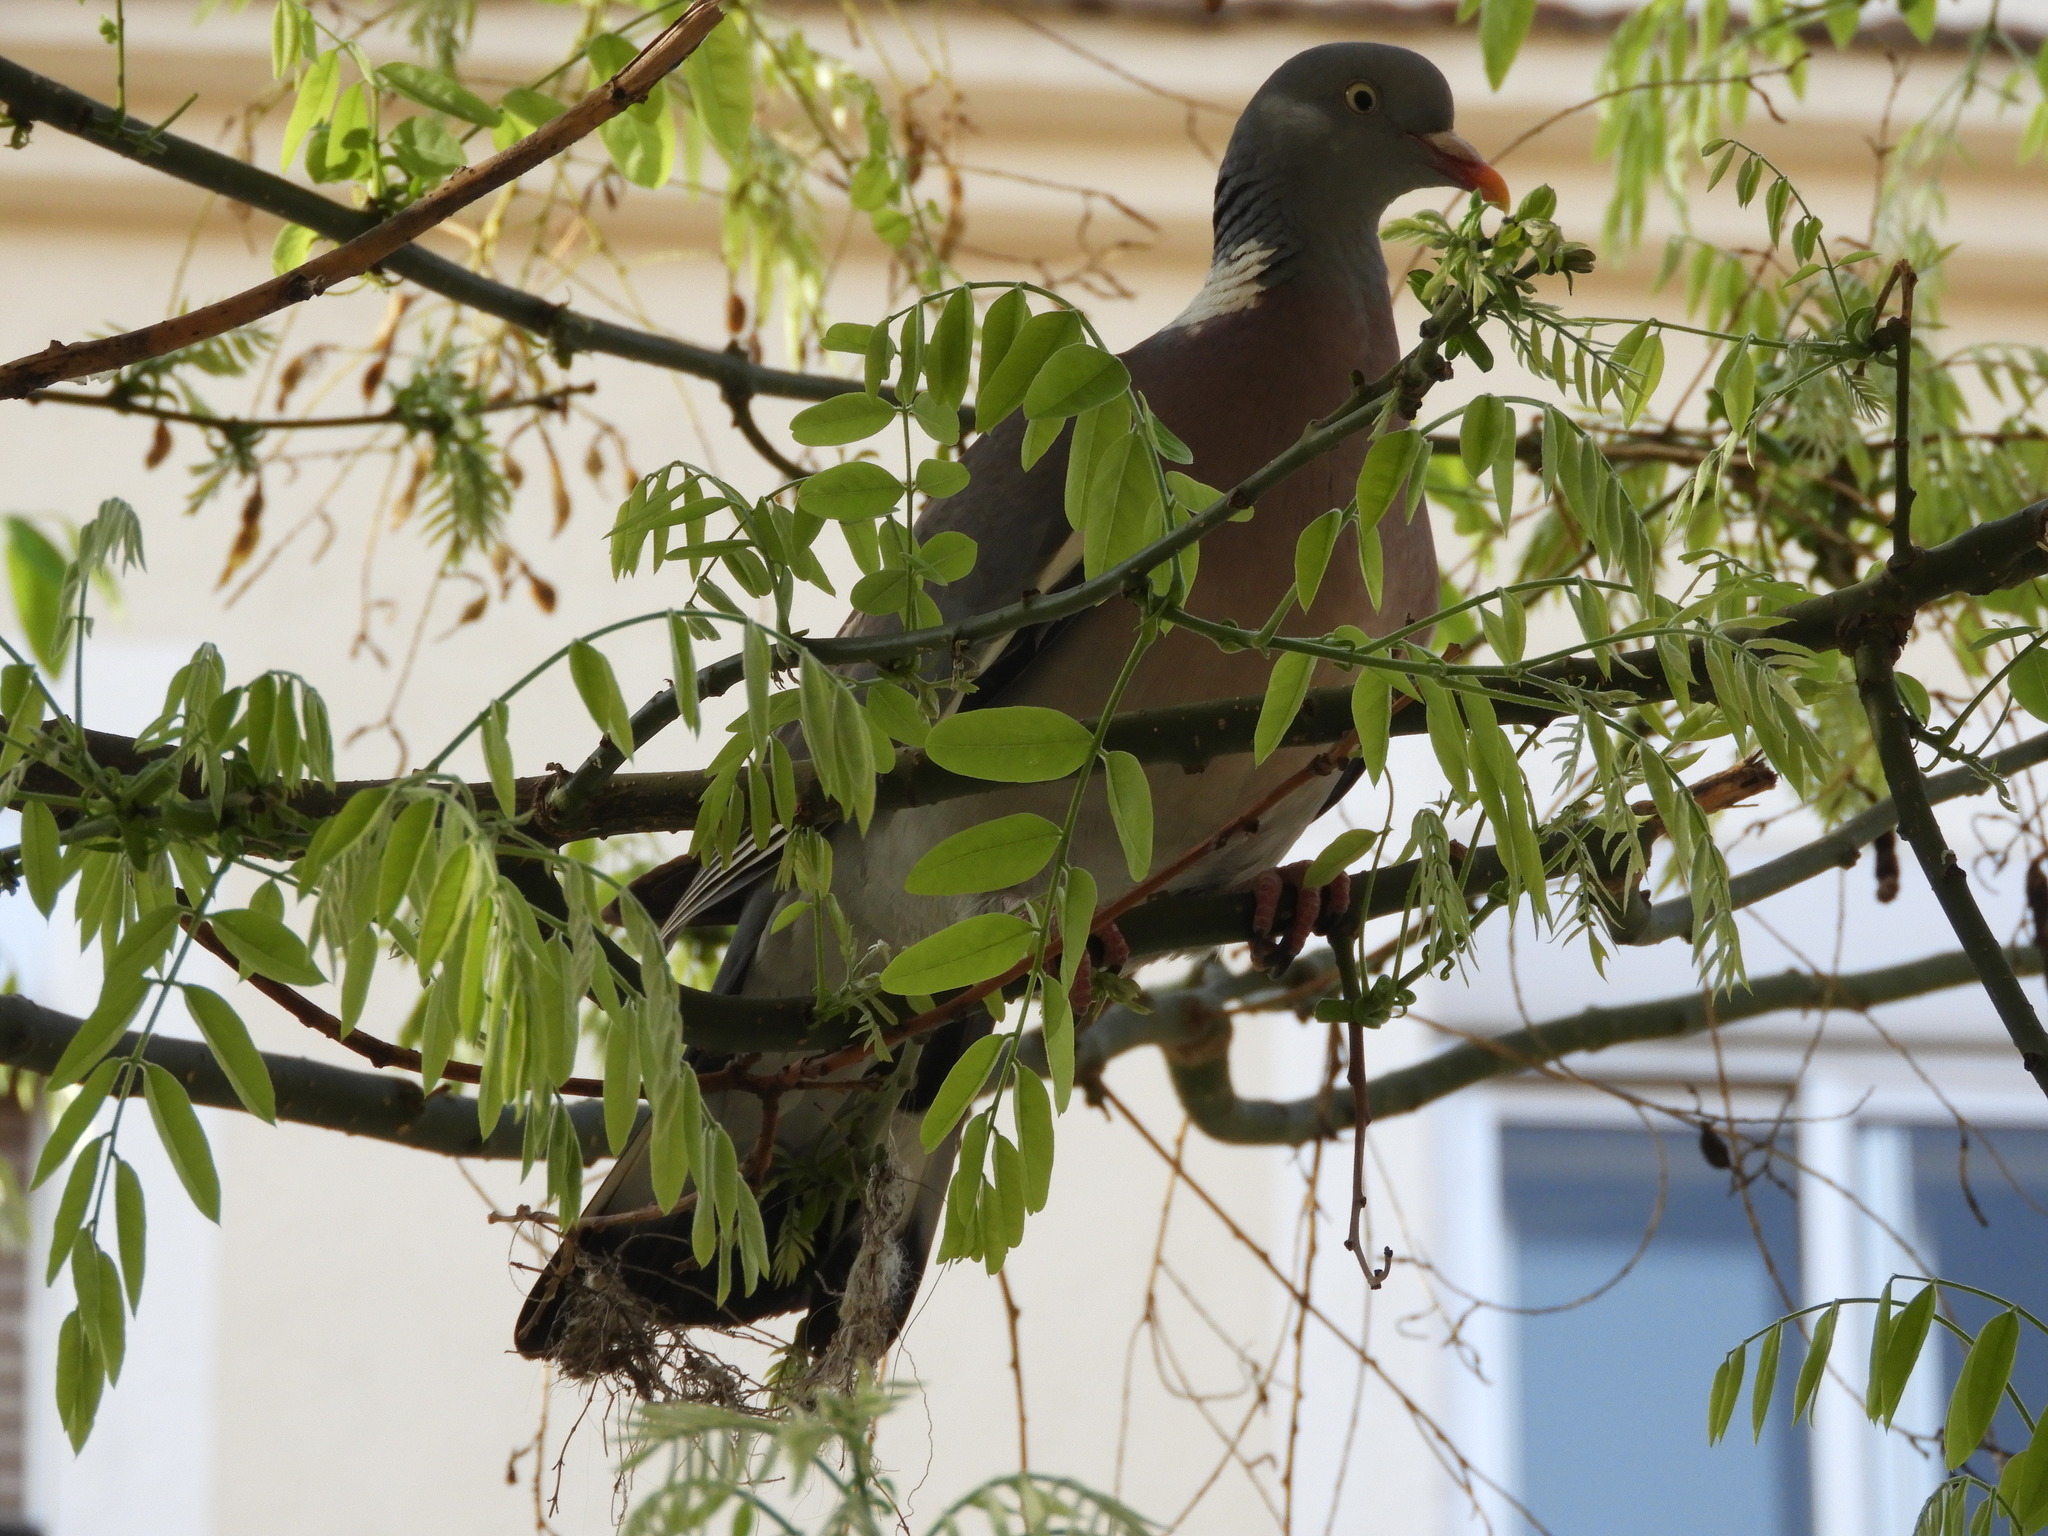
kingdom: Animalia
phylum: Chordata
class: Aves
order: Columbiformes
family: Columbidae
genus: Columba
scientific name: Columba palumbus
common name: Common wood pigeon
